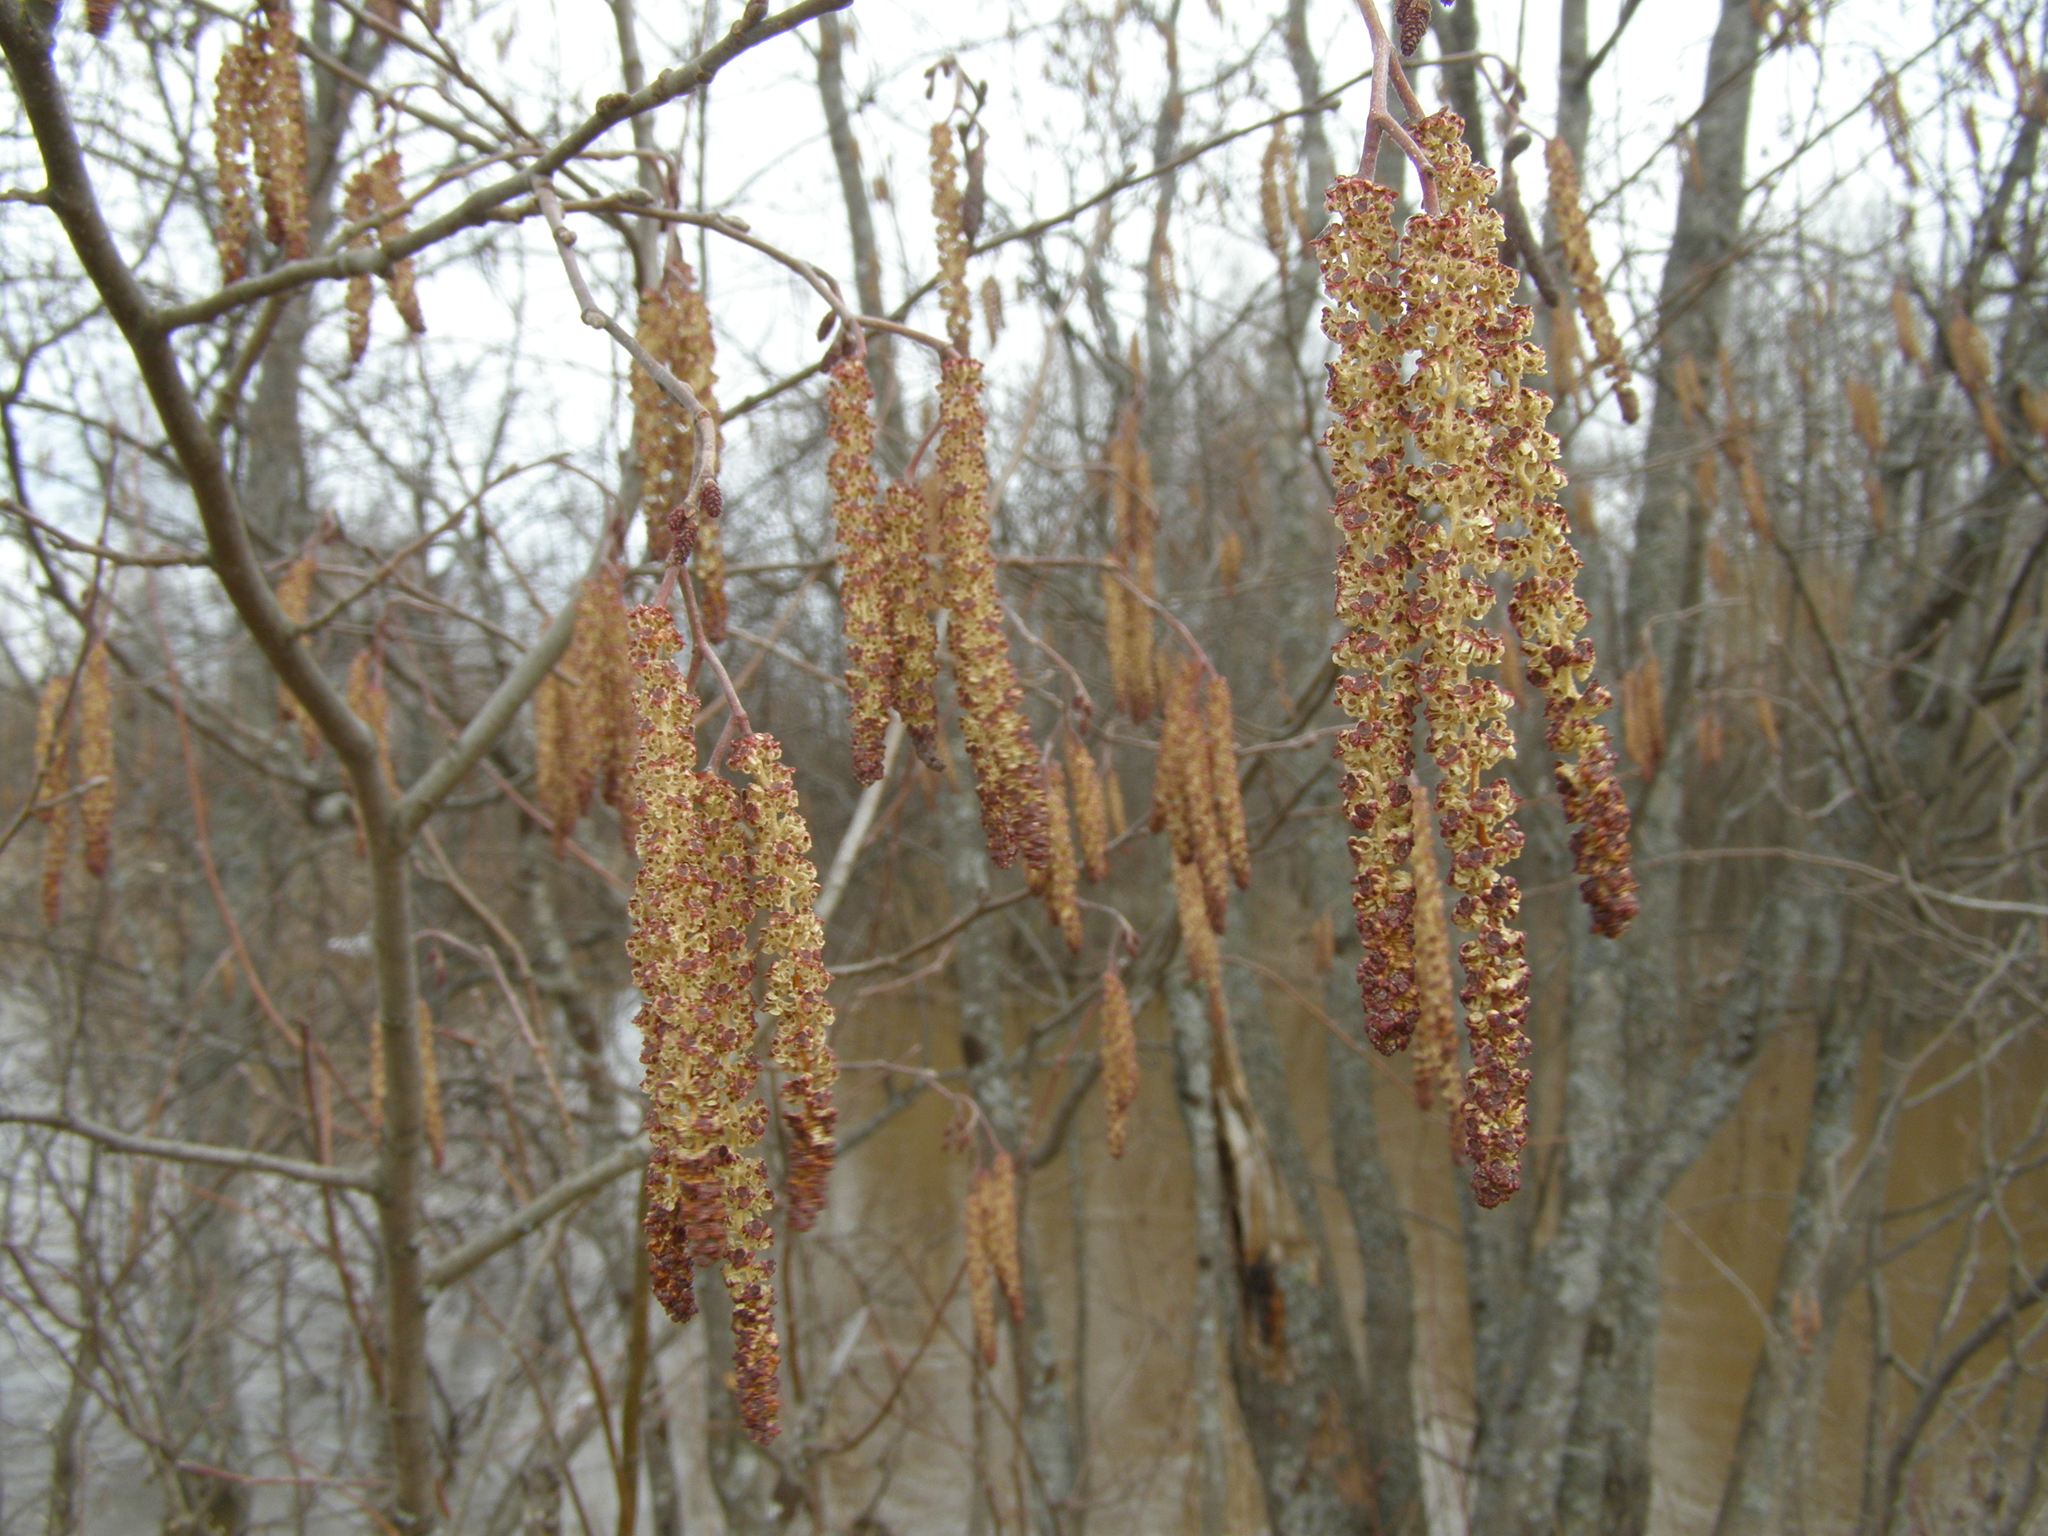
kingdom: Plantae
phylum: Tracheophyta
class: Magnoliopsida
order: Fagales
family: Betulaceae
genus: Alnus
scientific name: Alnus incana
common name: Grey alder
